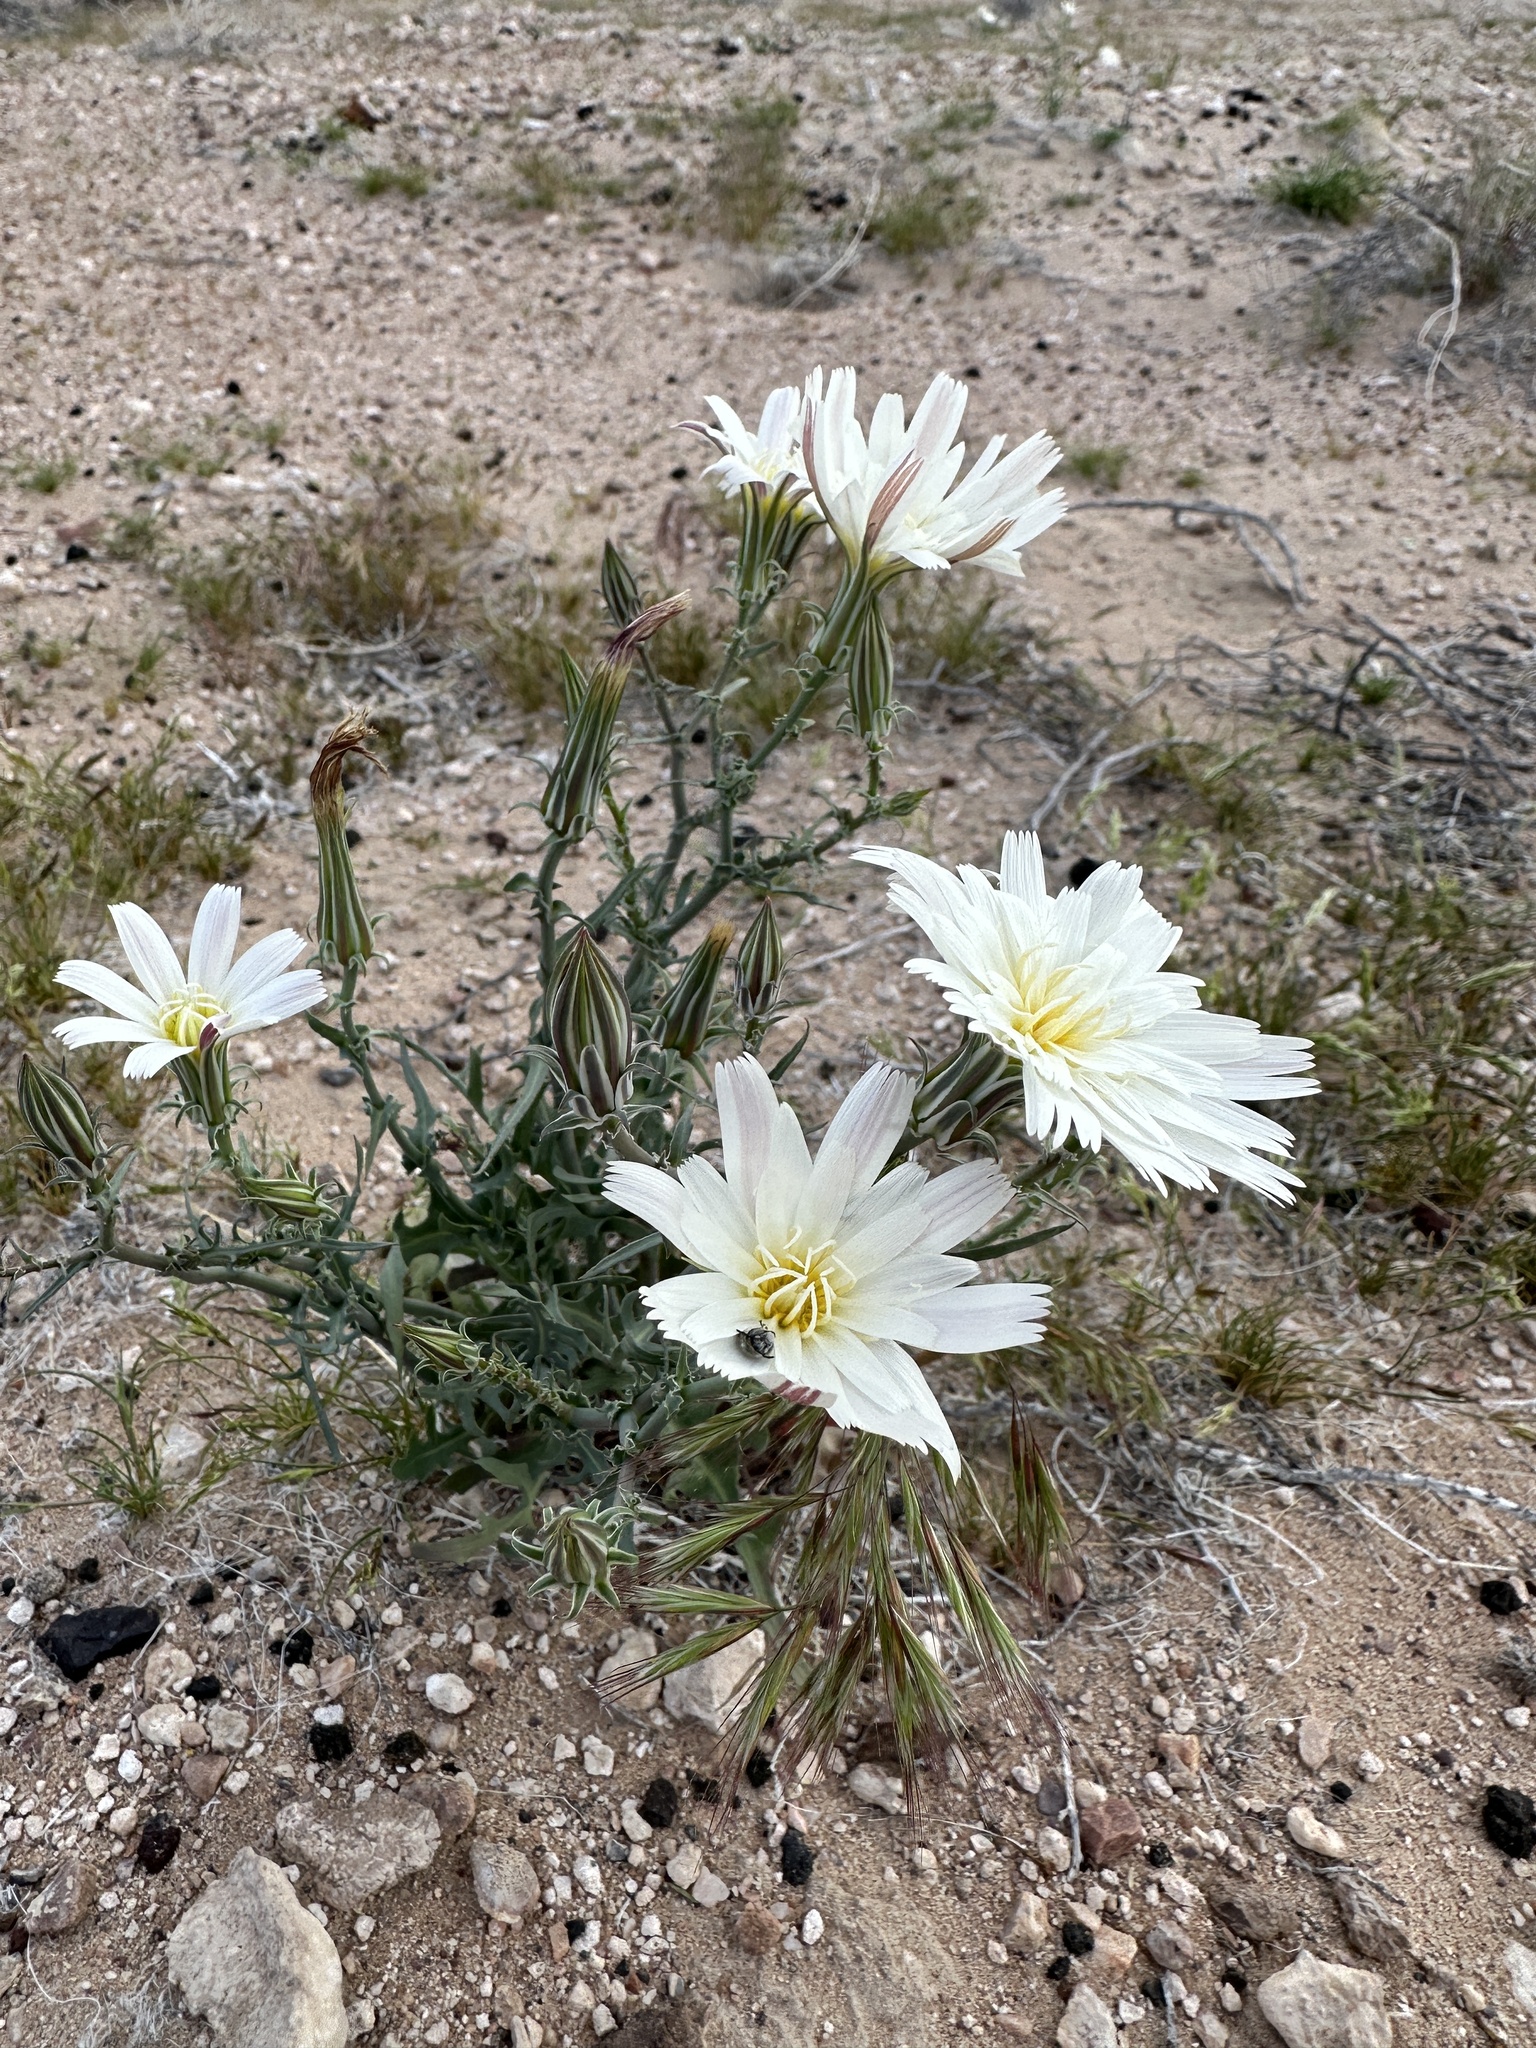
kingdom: Plantae
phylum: Tracheophyta
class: Magnoliopsida
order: Asterales
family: Asteraceae
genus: Rafinesquia
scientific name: Rafinesquia neomexicana
